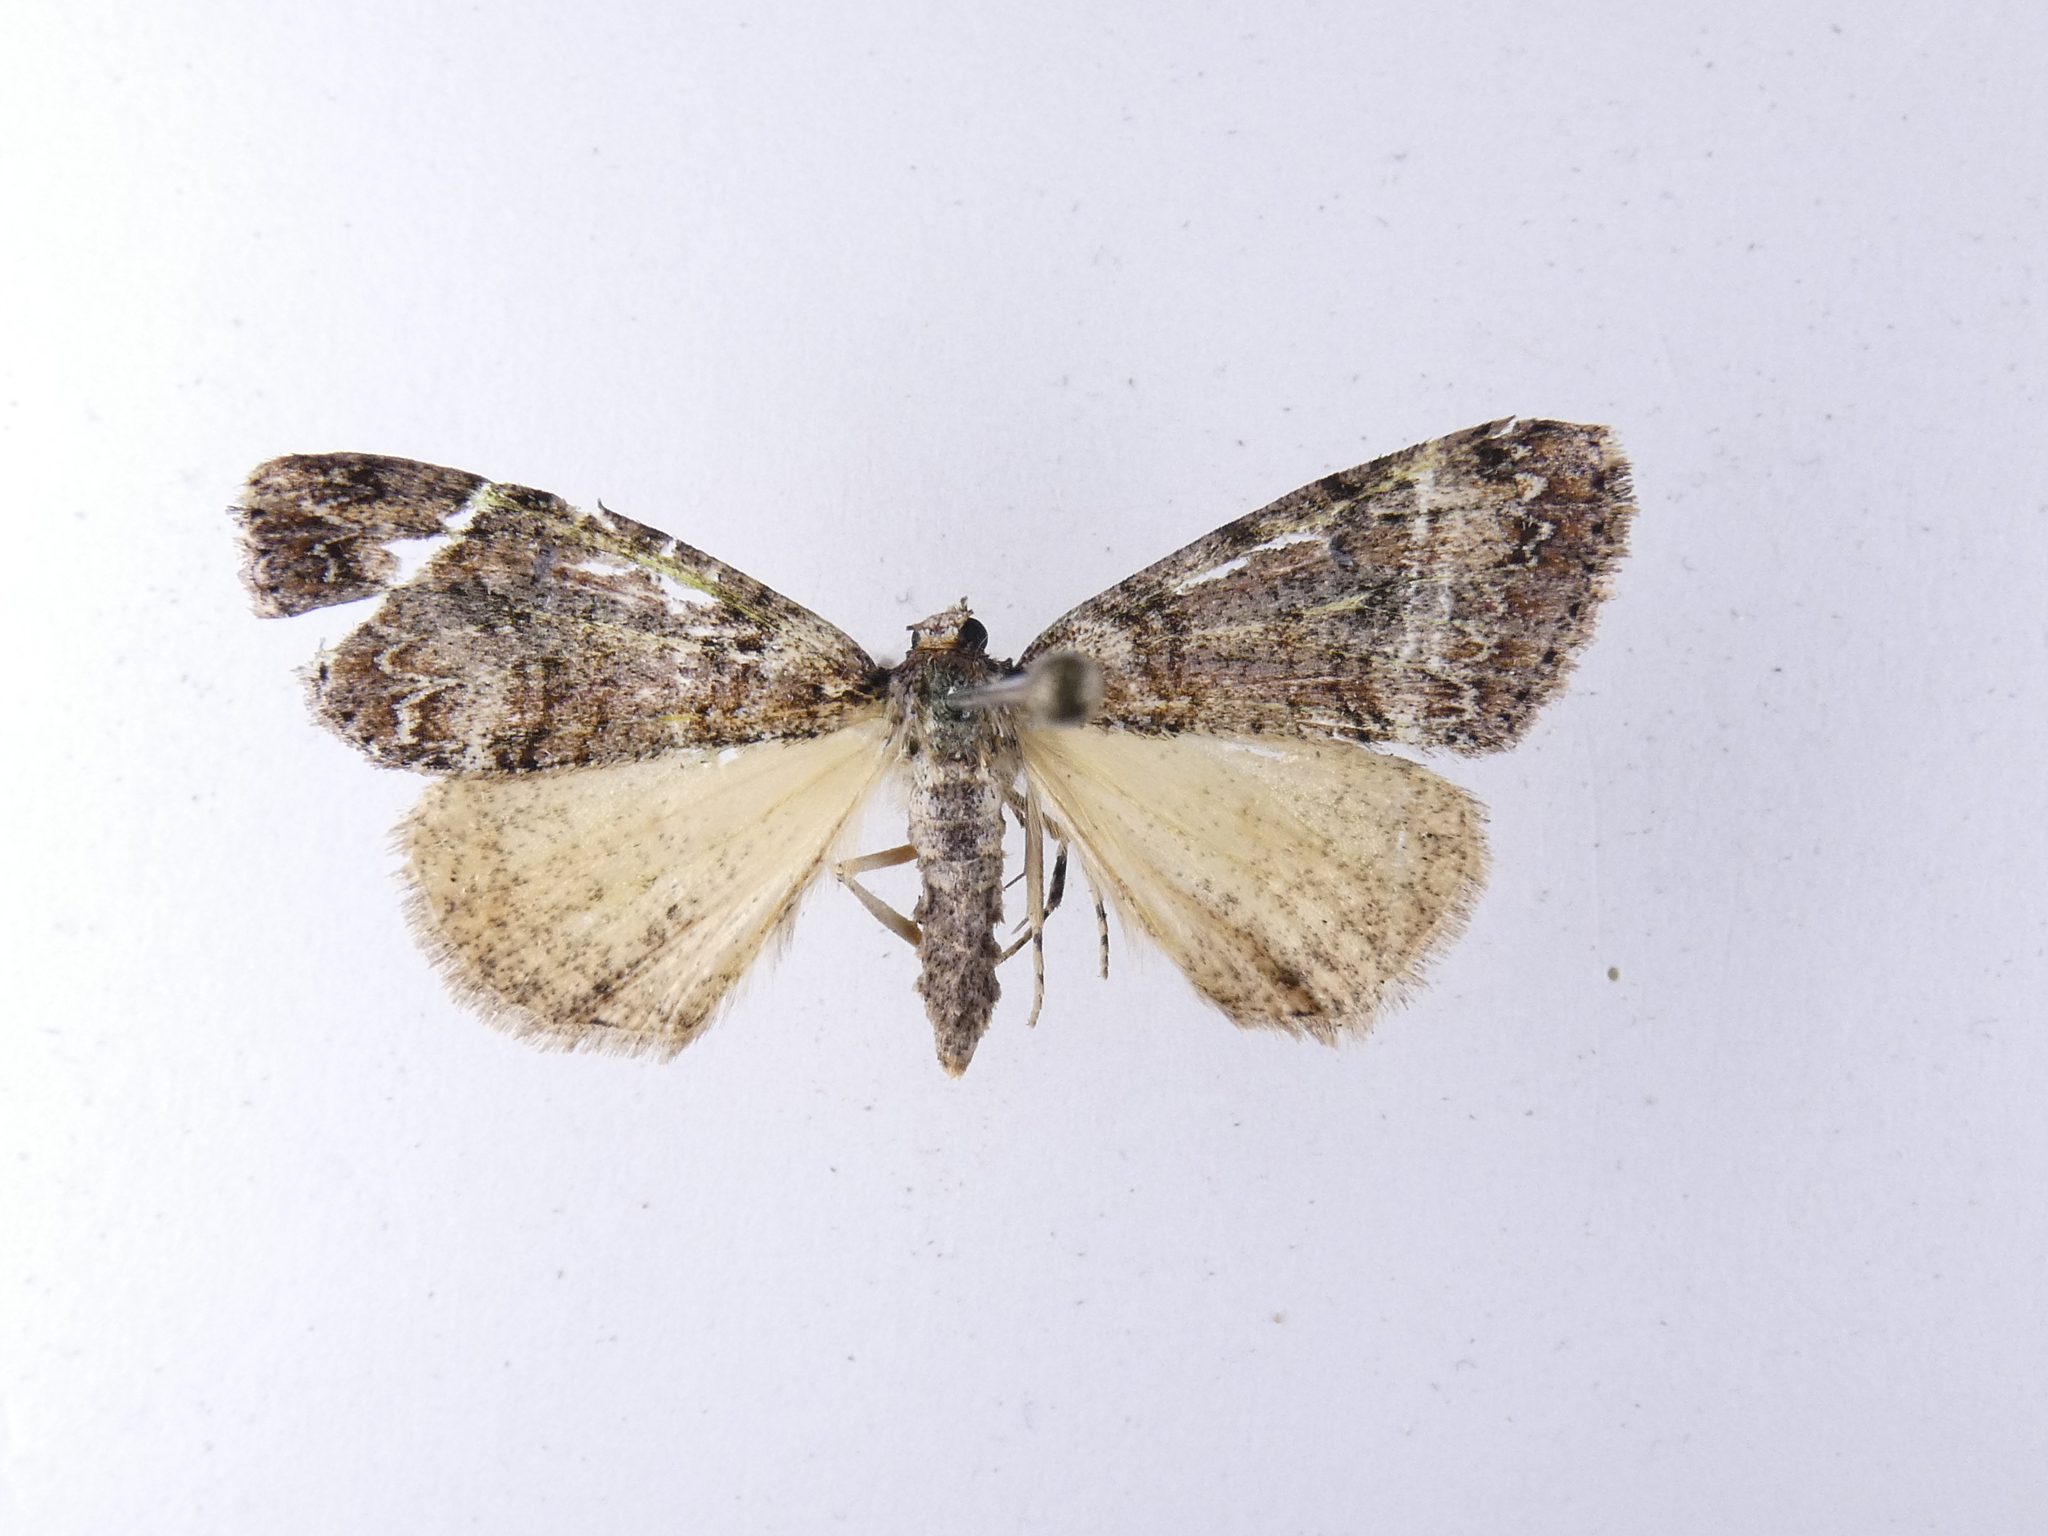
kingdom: Animalia
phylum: Arthropoda
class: Insecta
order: Lepidoptera
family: Geometridae
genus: Pseudocoremia
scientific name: Pseudocoremia suavis
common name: Common forest looper
